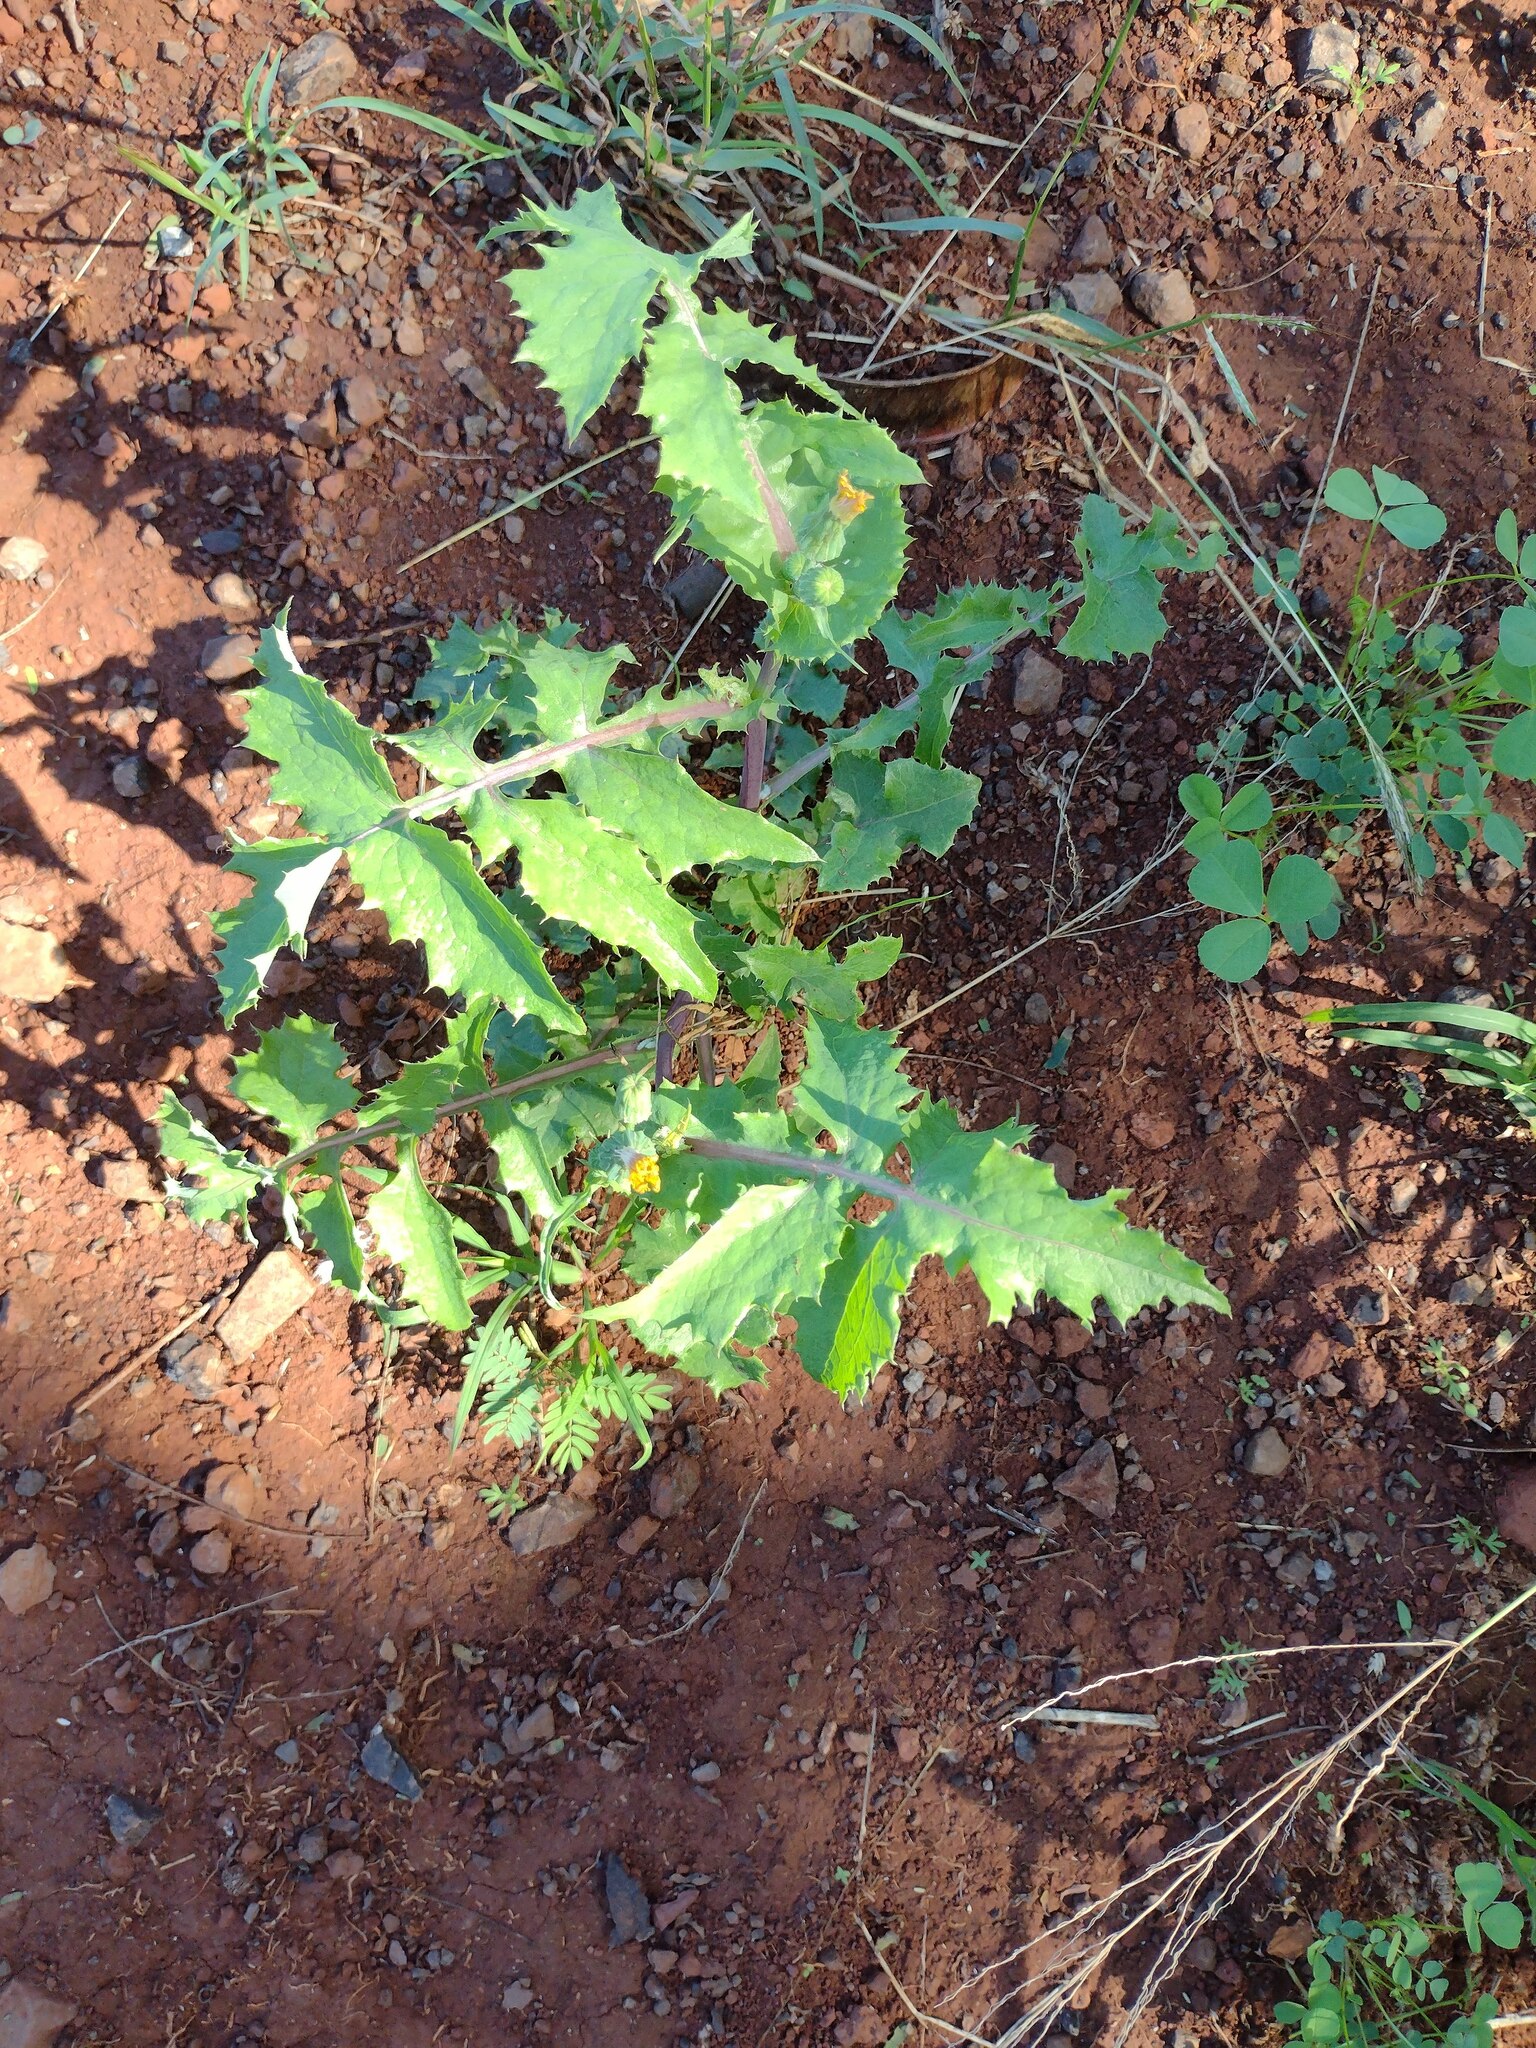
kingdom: Plantae
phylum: Tracheophyta
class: Magnoliopsida
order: Asterales
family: Asteraceae
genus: Sonchus
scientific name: Sonchus oleraceus
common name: Common sowthistle
